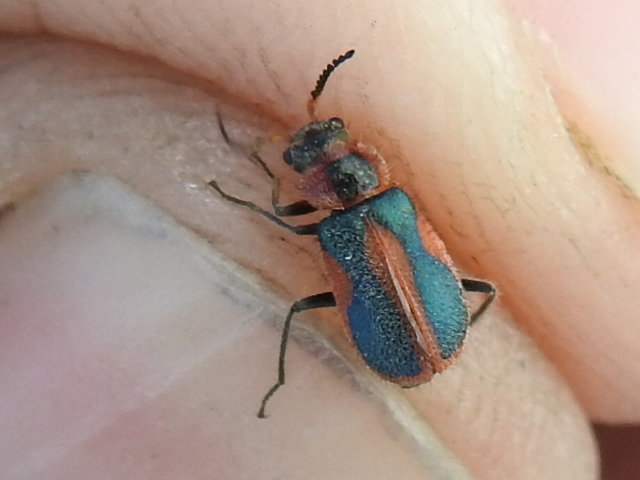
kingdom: Animalia
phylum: Arthropoda
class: Insecta
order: Coleoptera
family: Melyridae
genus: Collops
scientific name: Collops vittatus
